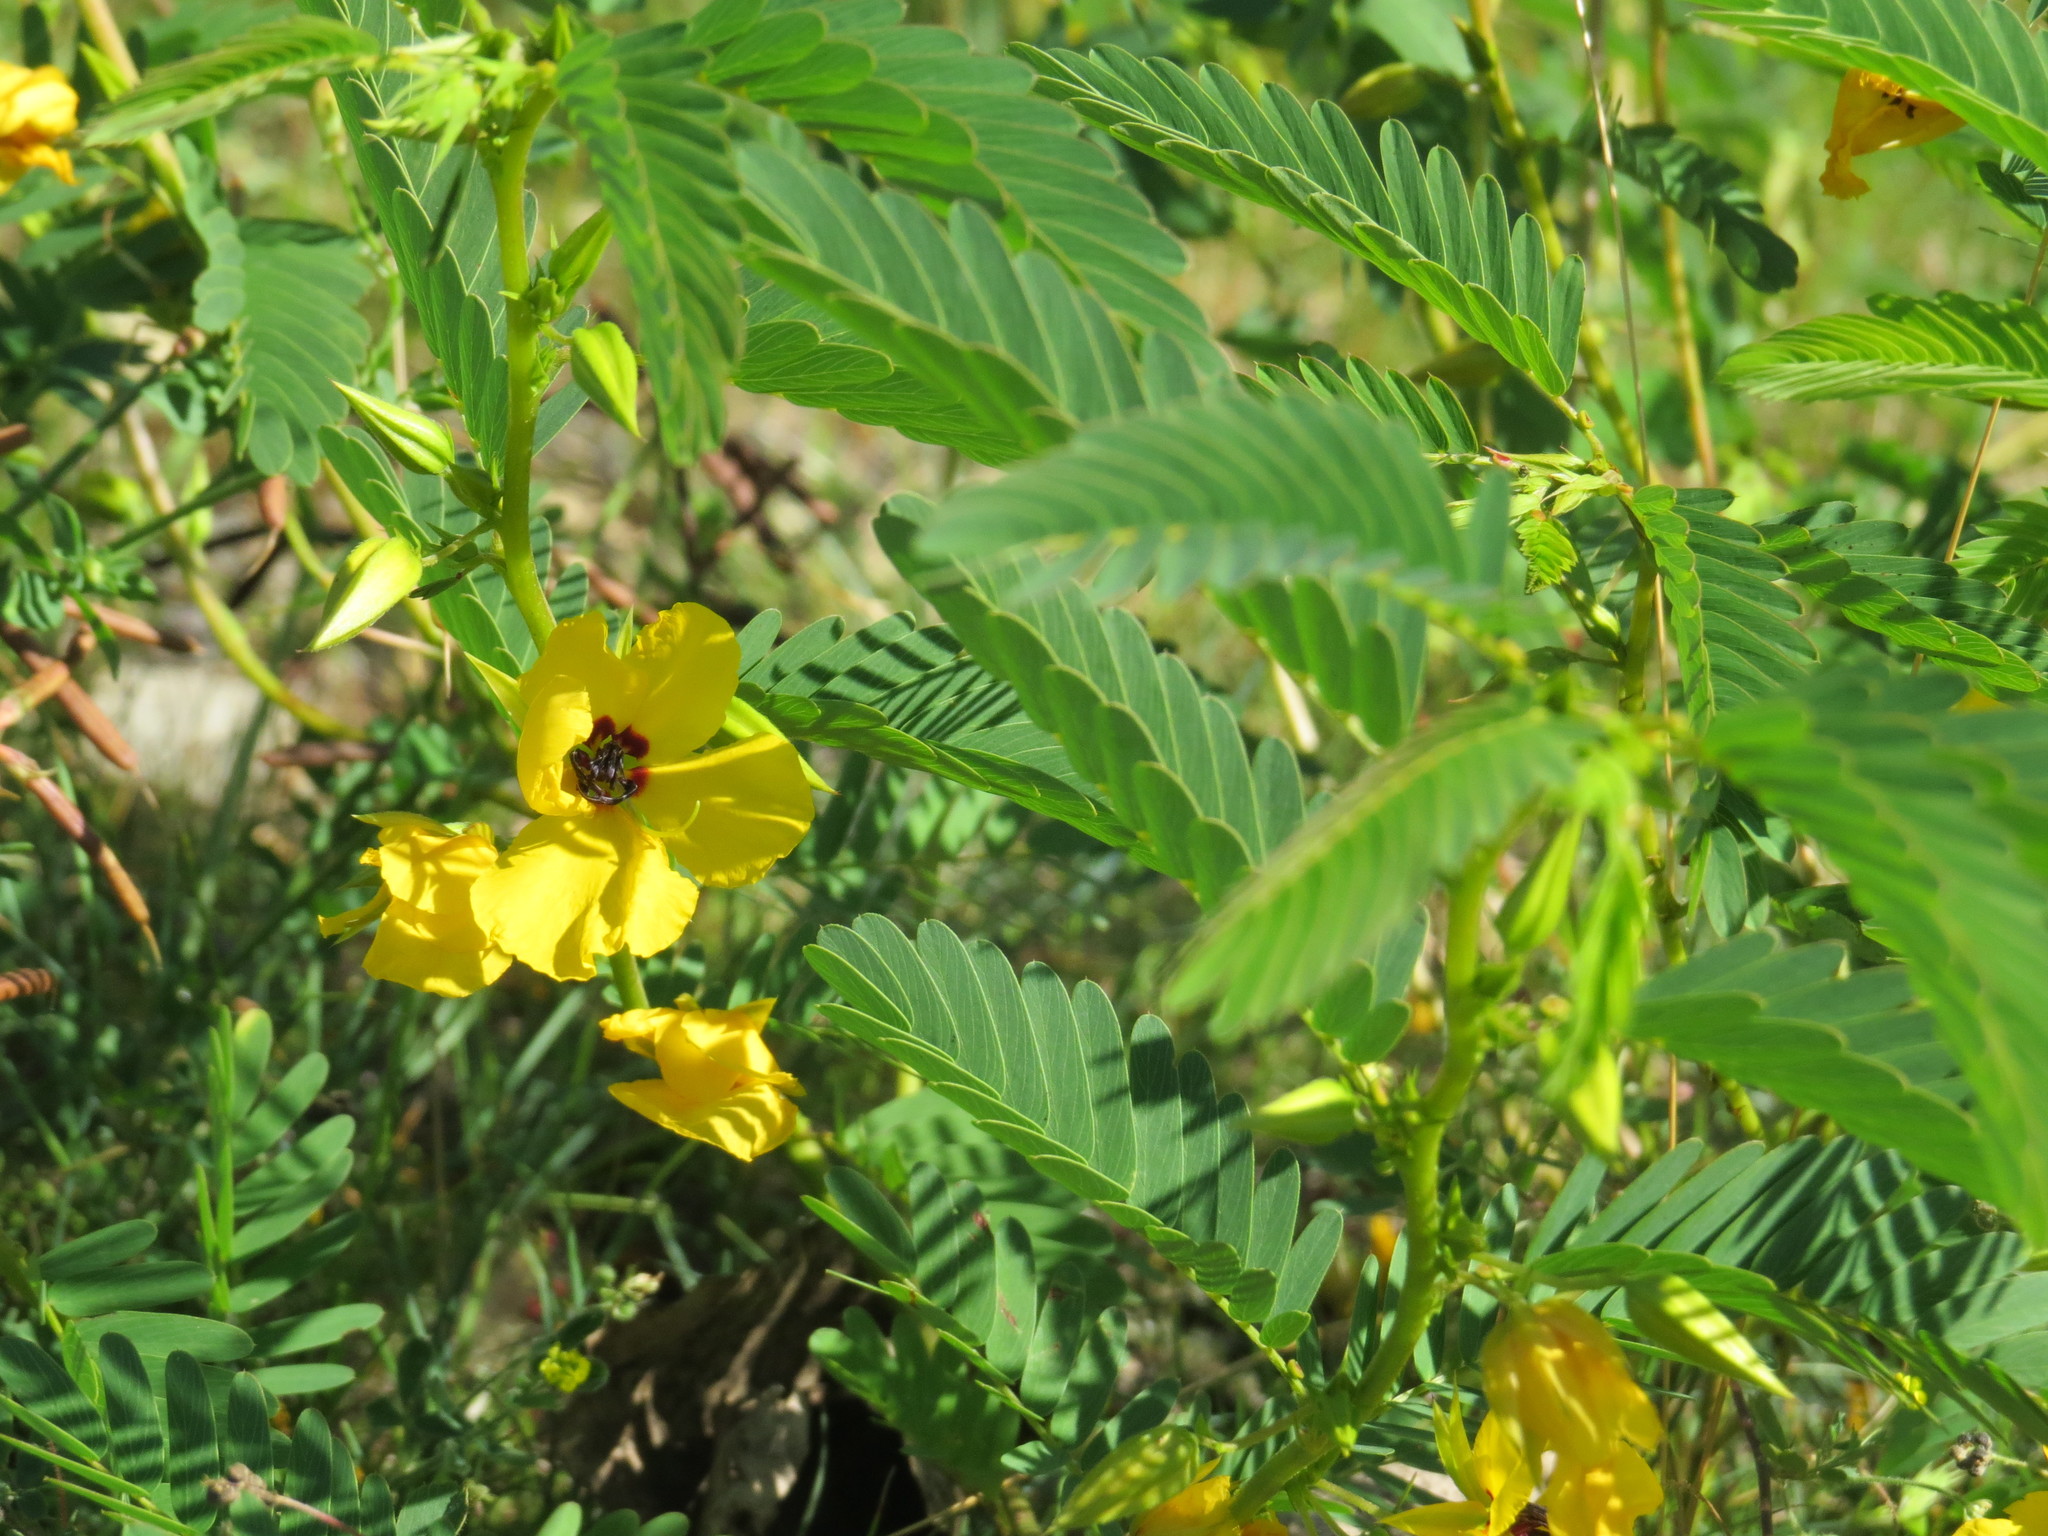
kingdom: Plantae
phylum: Tracheophyta
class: Magnoliopsida
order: Fabales
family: Fabaceae
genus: Chamaecrista
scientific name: Chamaecrista fasciculata
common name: Golden cassia
